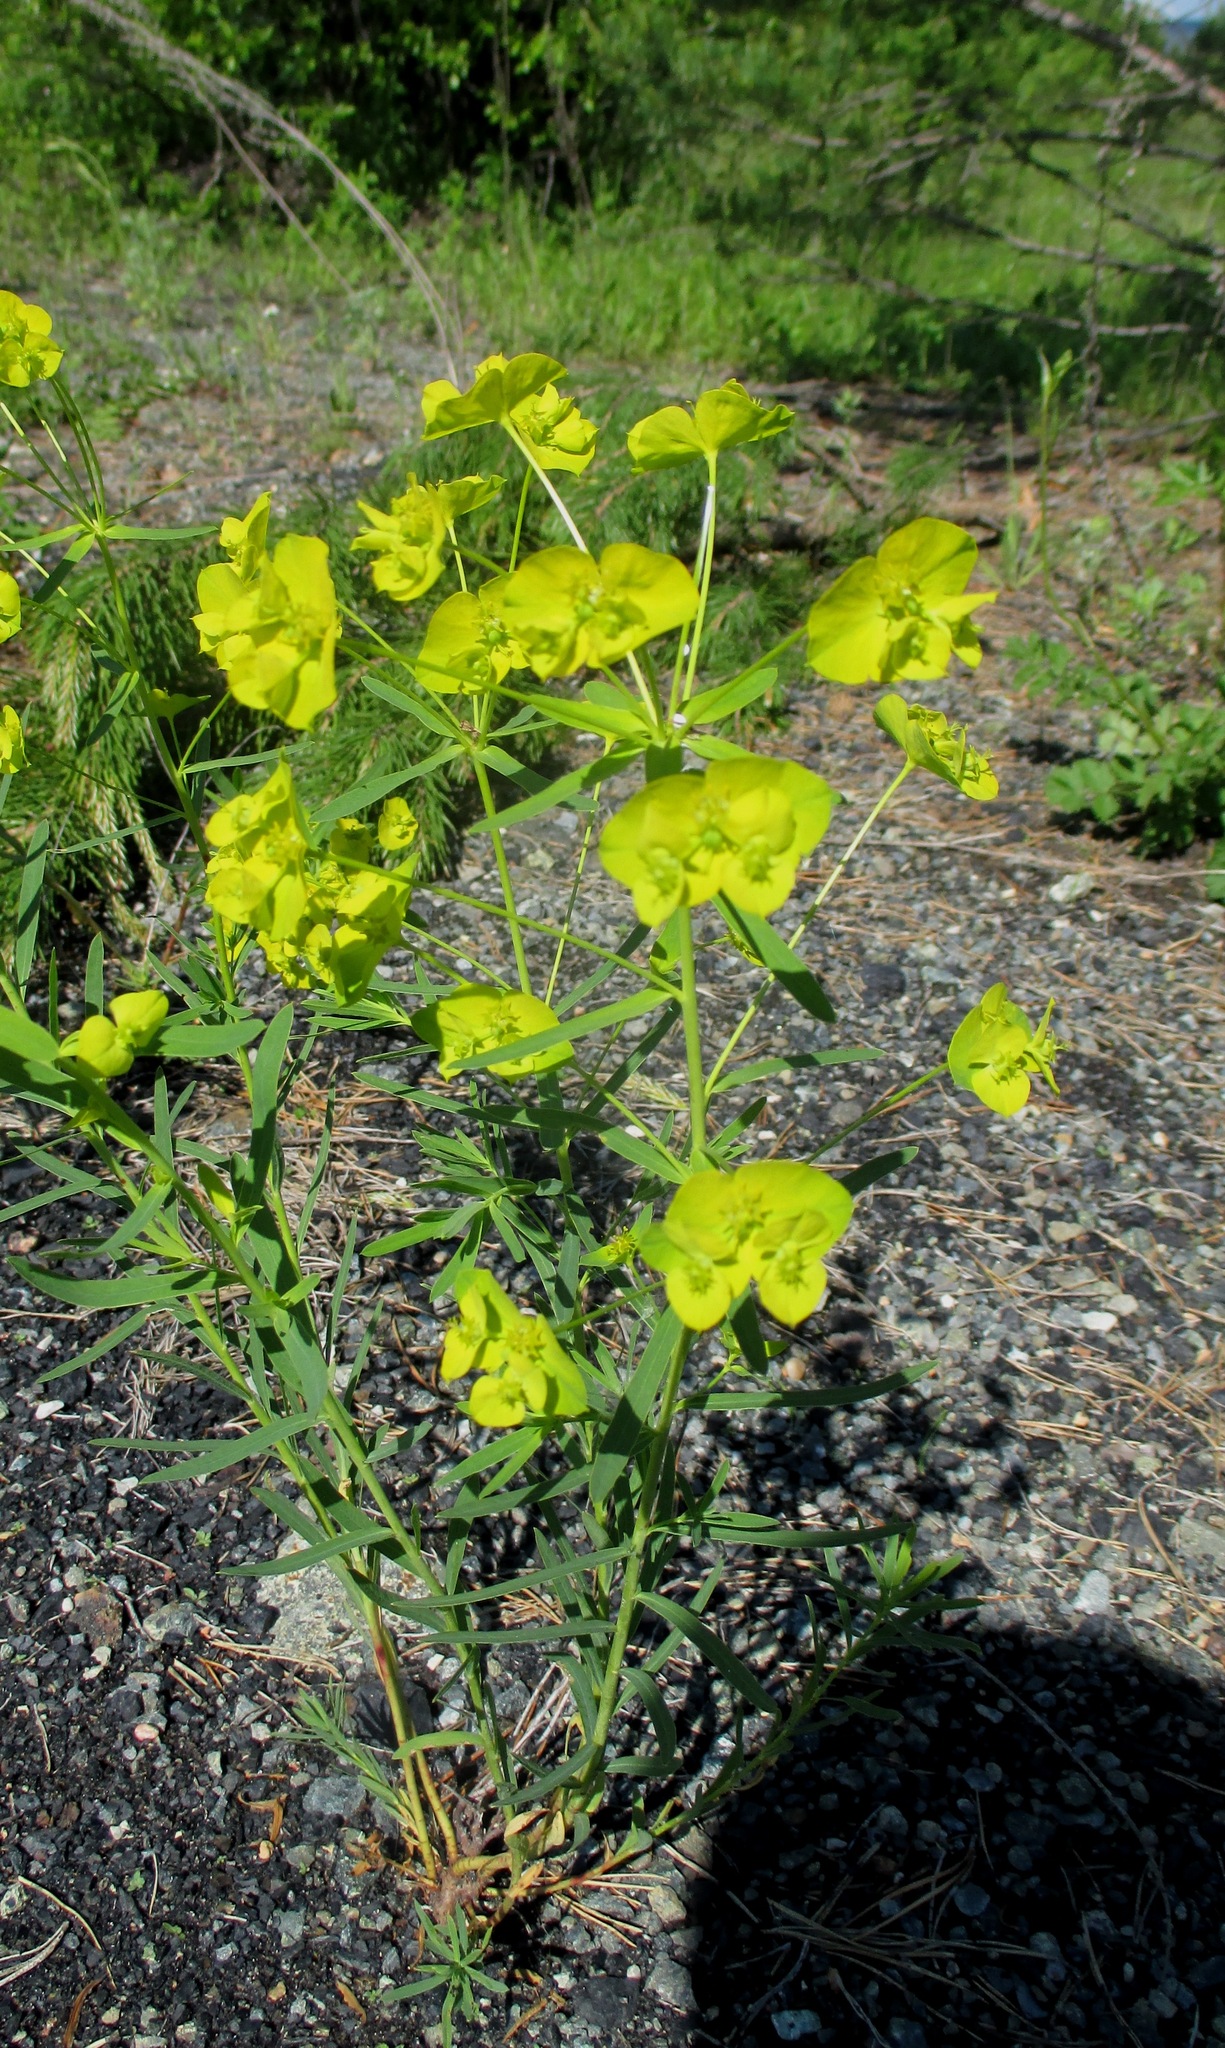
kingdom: Plantae
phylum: Tracheophyta
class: Magnoliopsida
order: Malpighiales
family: Euphorbiaceae
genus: Euphorbia
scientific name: Euphorbia virgata
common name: Leafy spurge
